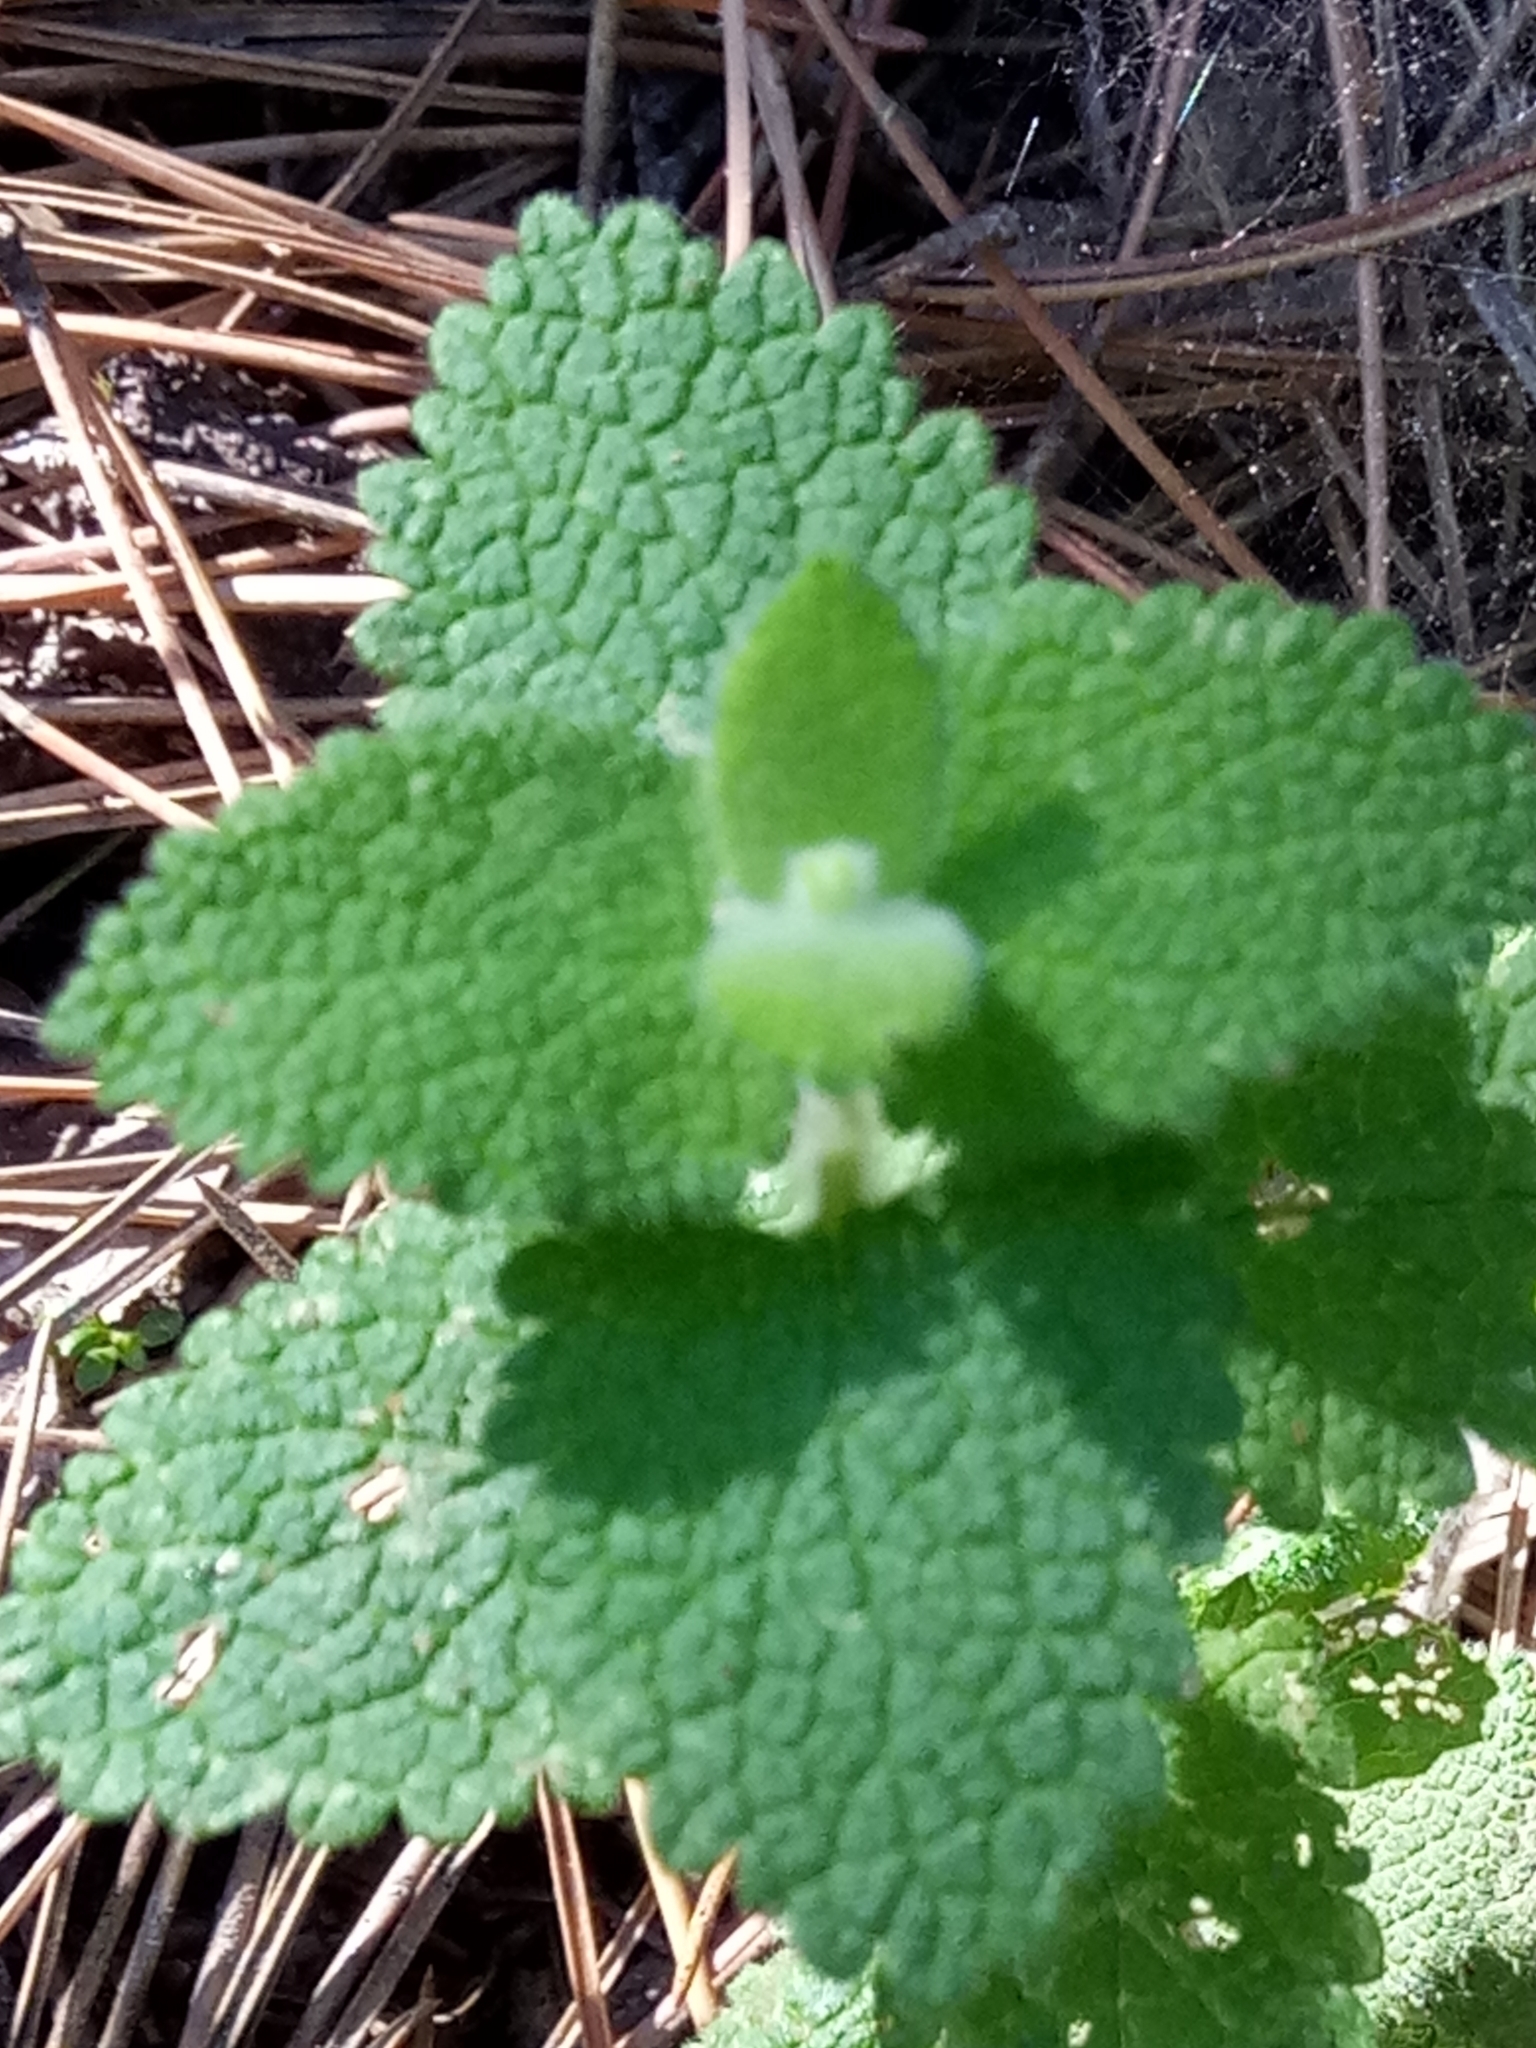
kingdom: Plantae
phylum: Tracheophyta
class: Magnoliopsida
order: Lamiales
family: Lamiaceae
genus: Teucrium
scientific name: Teucrium scorodonia
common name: Woodland germander
